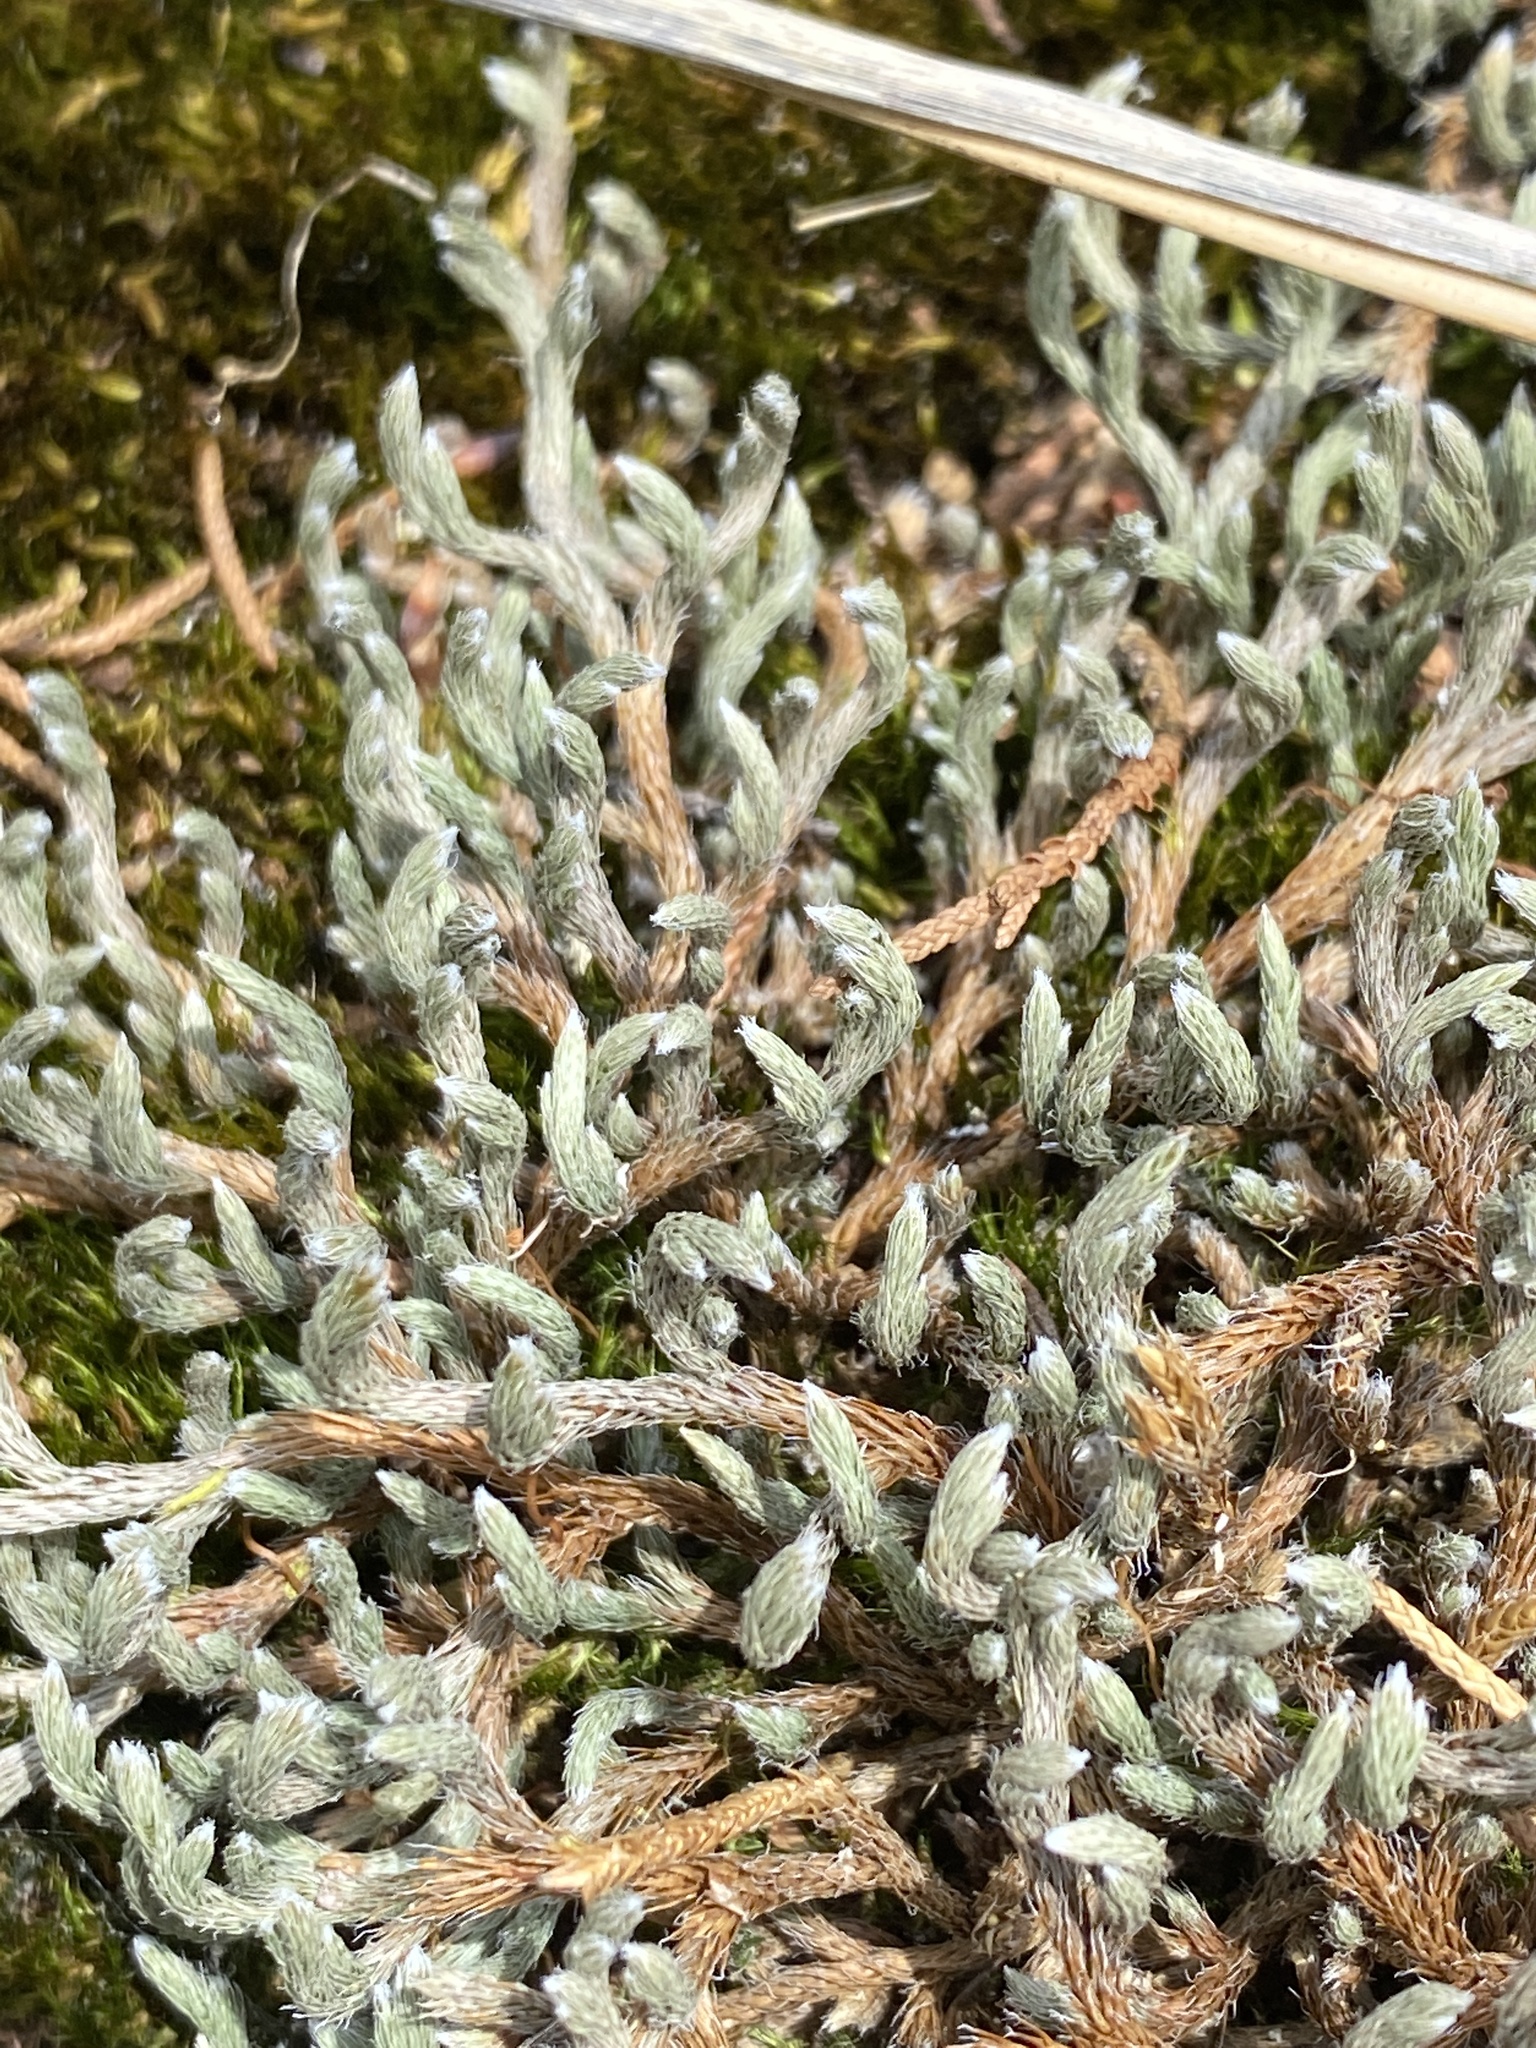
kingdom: Plantae
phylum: Tracheophyta
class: Lycopodiopsida
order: Selaginellales
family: Selaginellaceae
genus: Selaginella
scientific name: Selaginella rupestris
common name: Dwarf spikemoss
